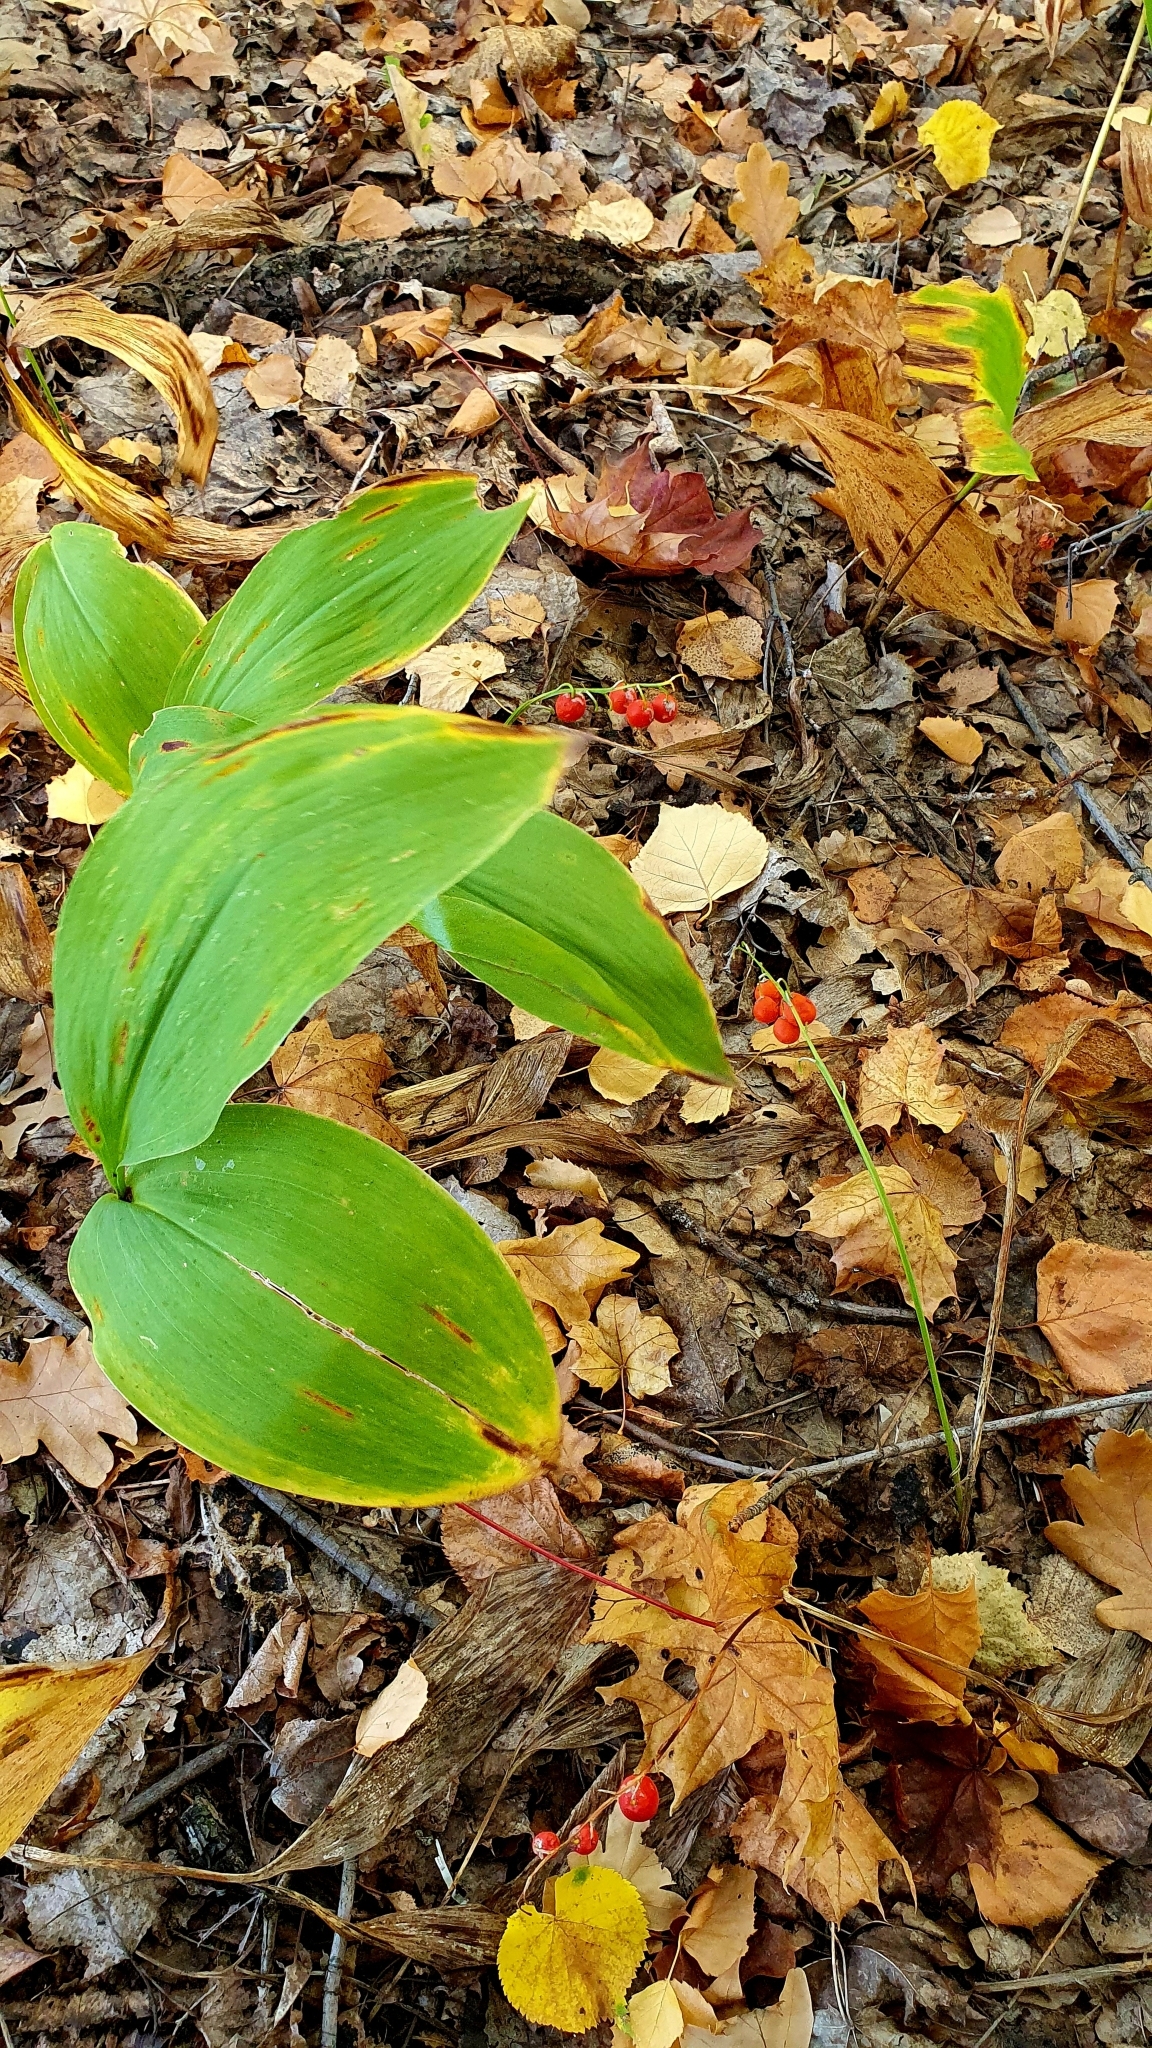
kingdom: Plantae
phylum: Tracheophyta
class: Liliopsida
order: Asparagales
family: Asparagaceae
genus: Convallaria
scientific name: Convallaria majalis
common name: Lily-of-the-valley
